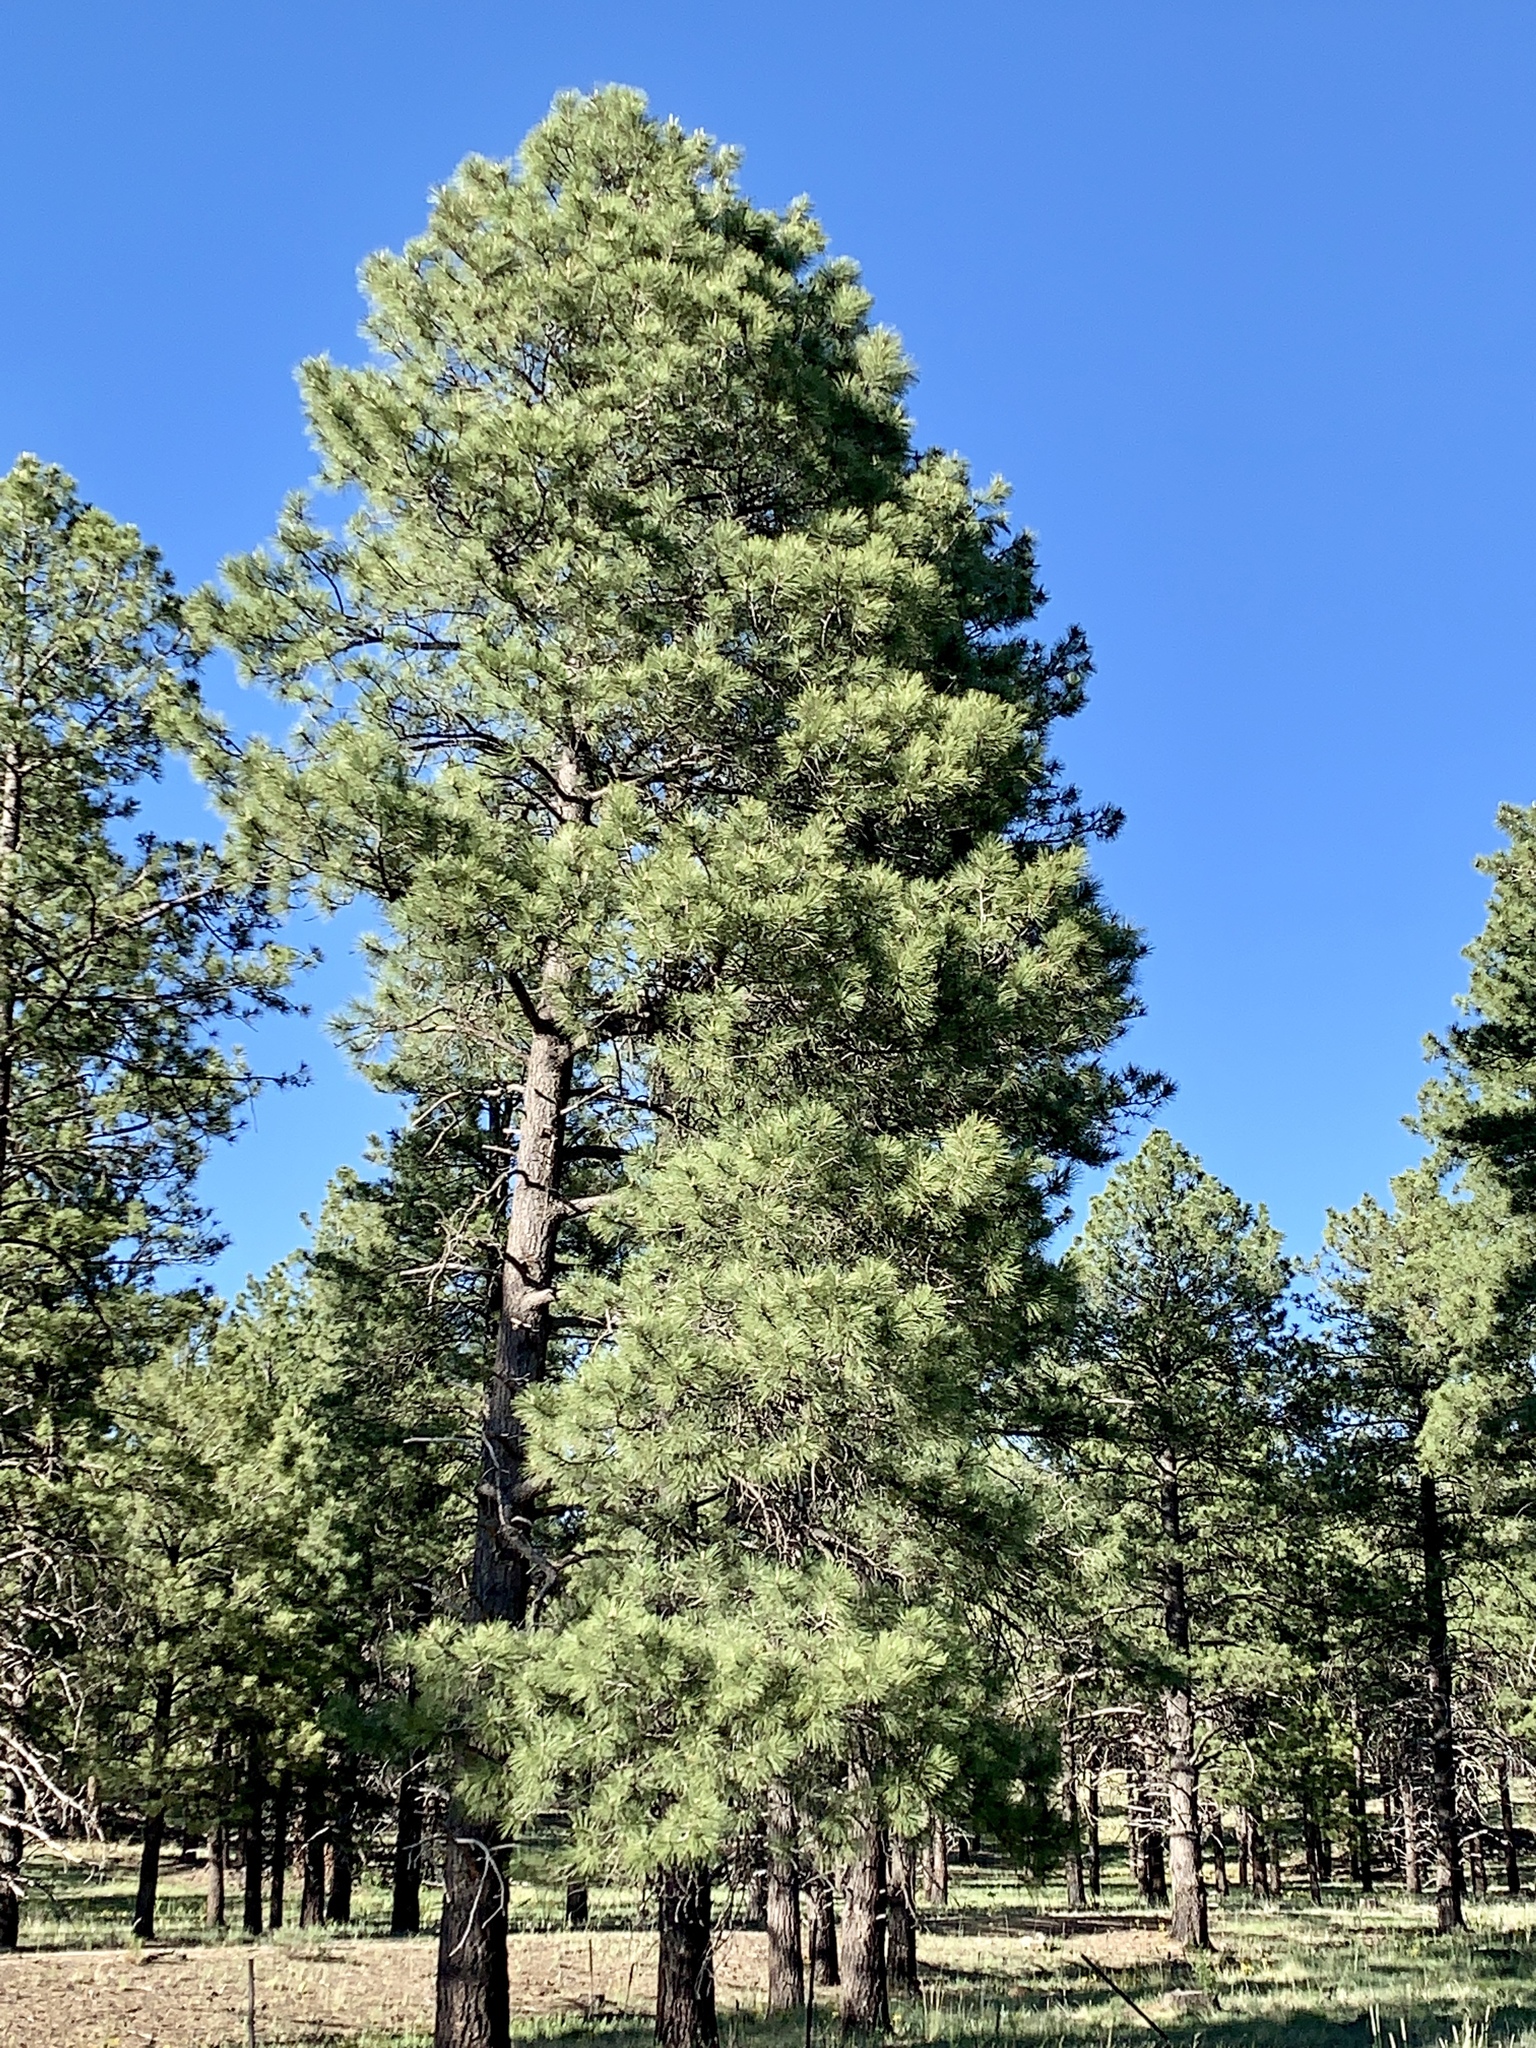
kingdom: Plantae
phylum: Tracheophyta
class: Pinopsida
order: Pinales
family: Pinaceae
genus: Pinus
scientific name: Pinus ponderosa
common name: Western yellow-pine
